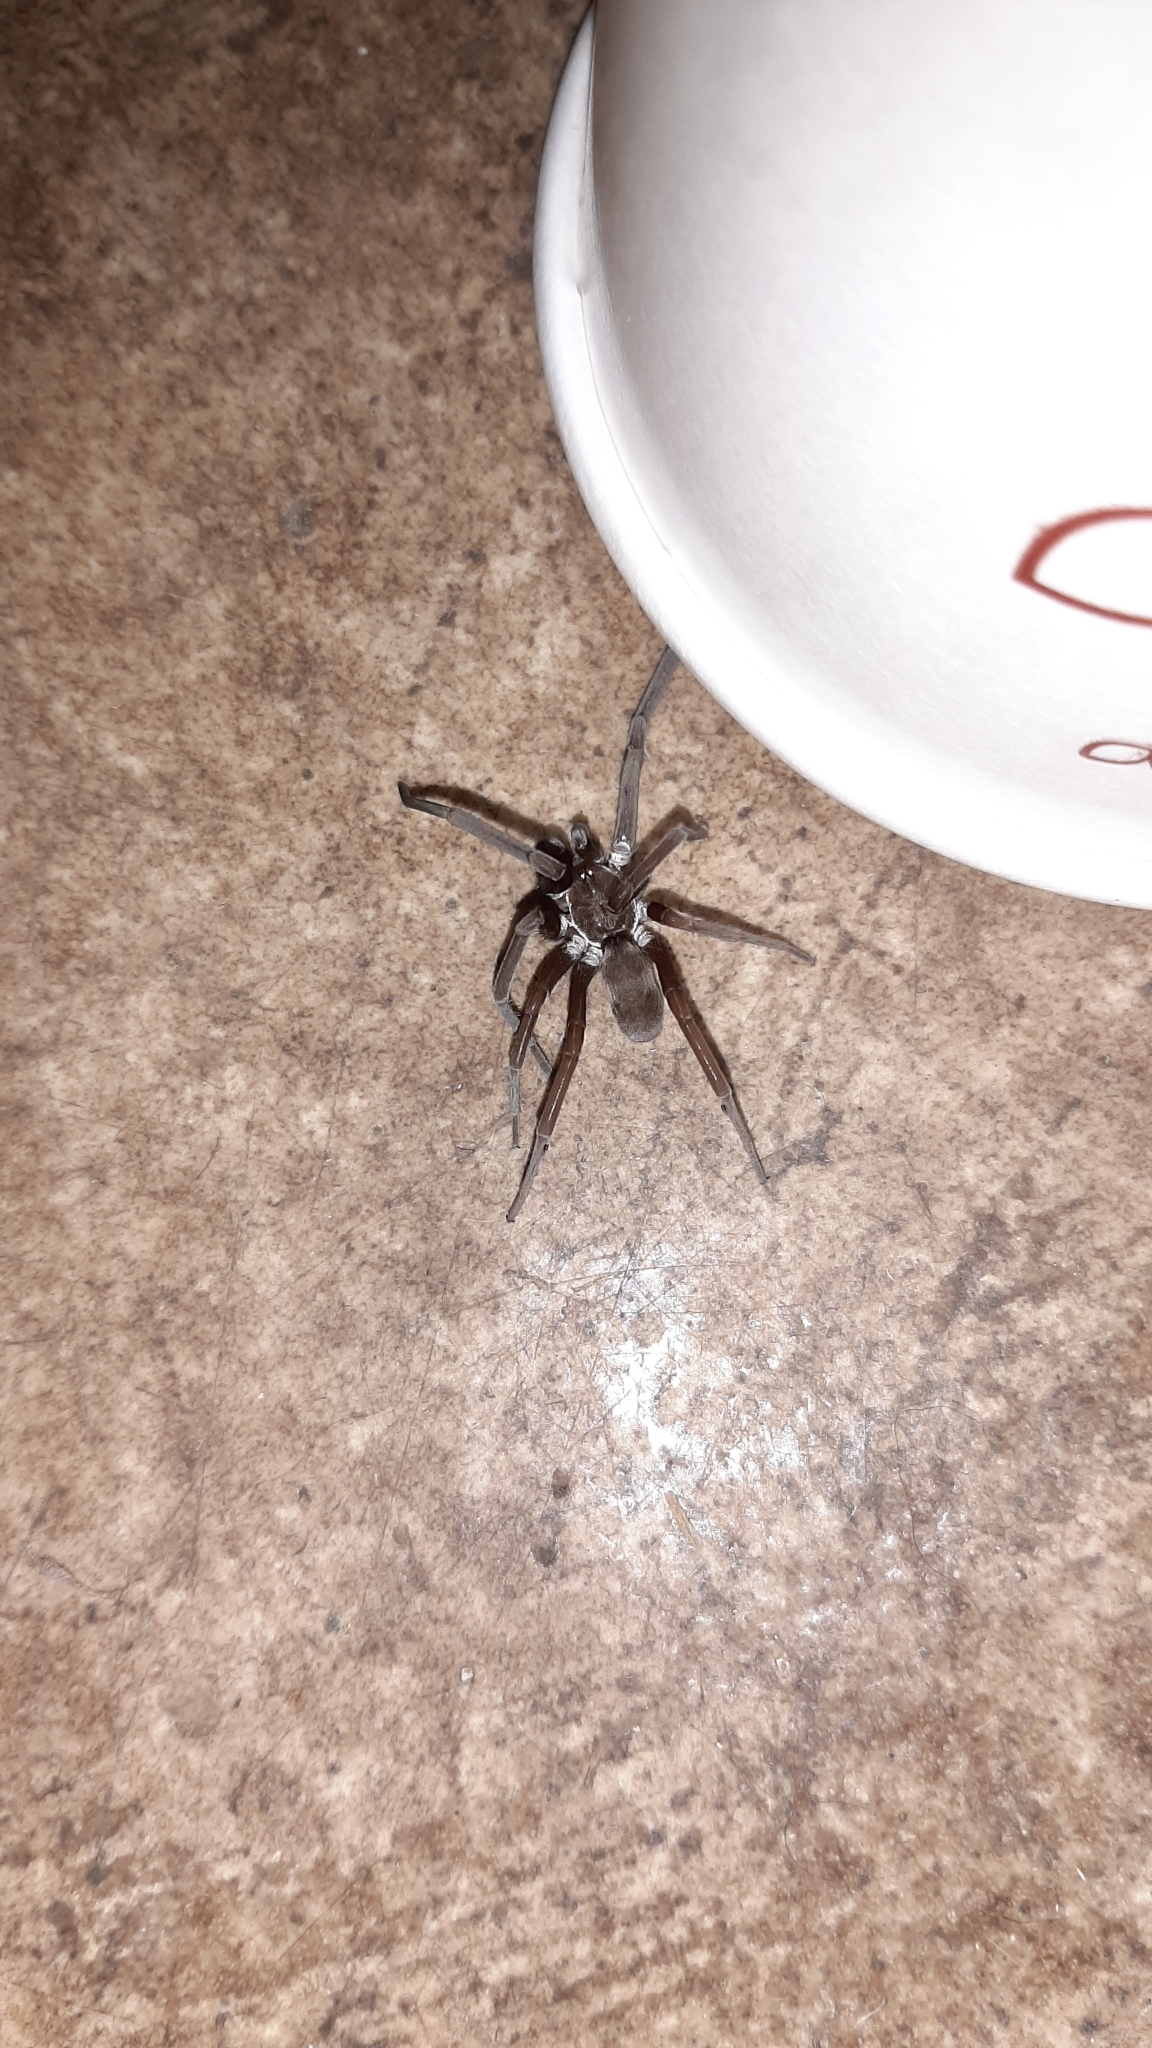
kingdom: Animalia
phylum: Arthropoda
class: Arachnida
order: Araneae
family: Filistatidae
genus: Kukulcania
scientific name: Kukulcania hibernalis
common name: Crevice weaver
